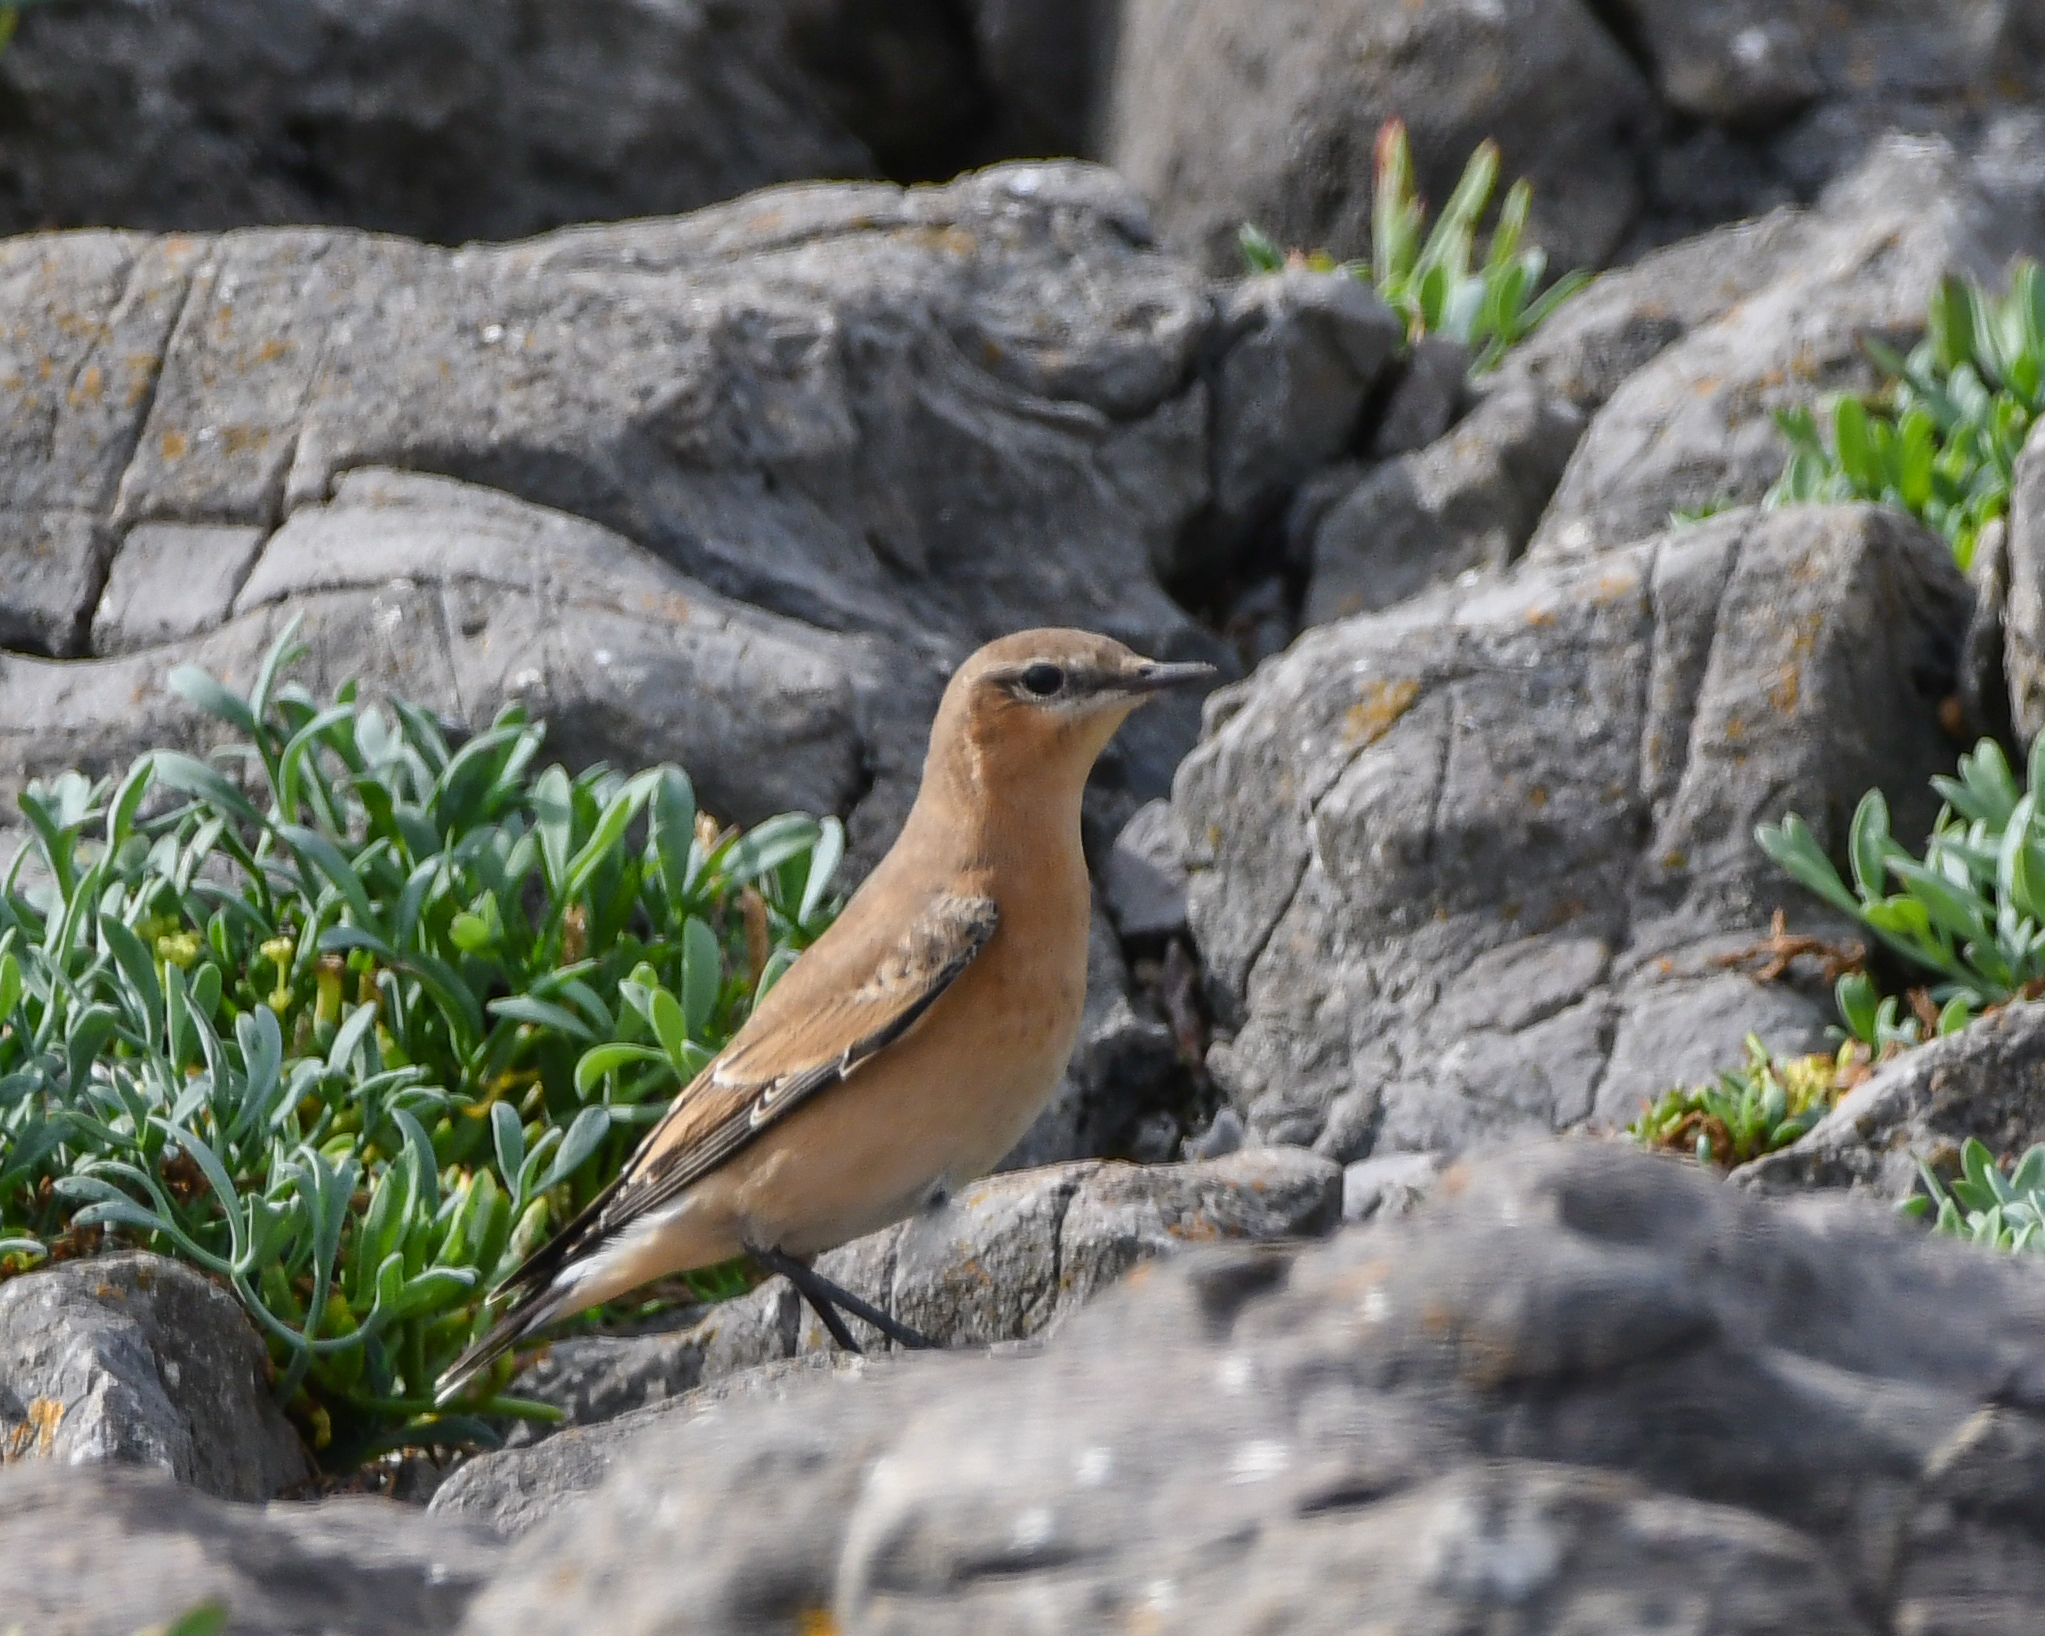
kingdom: Animalia
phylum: Chordata
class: Aves
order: Passeriformes
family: Muscicapidae
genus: Oenanthe
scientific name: Oenanthe oenanthe
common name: Northern wheatear
